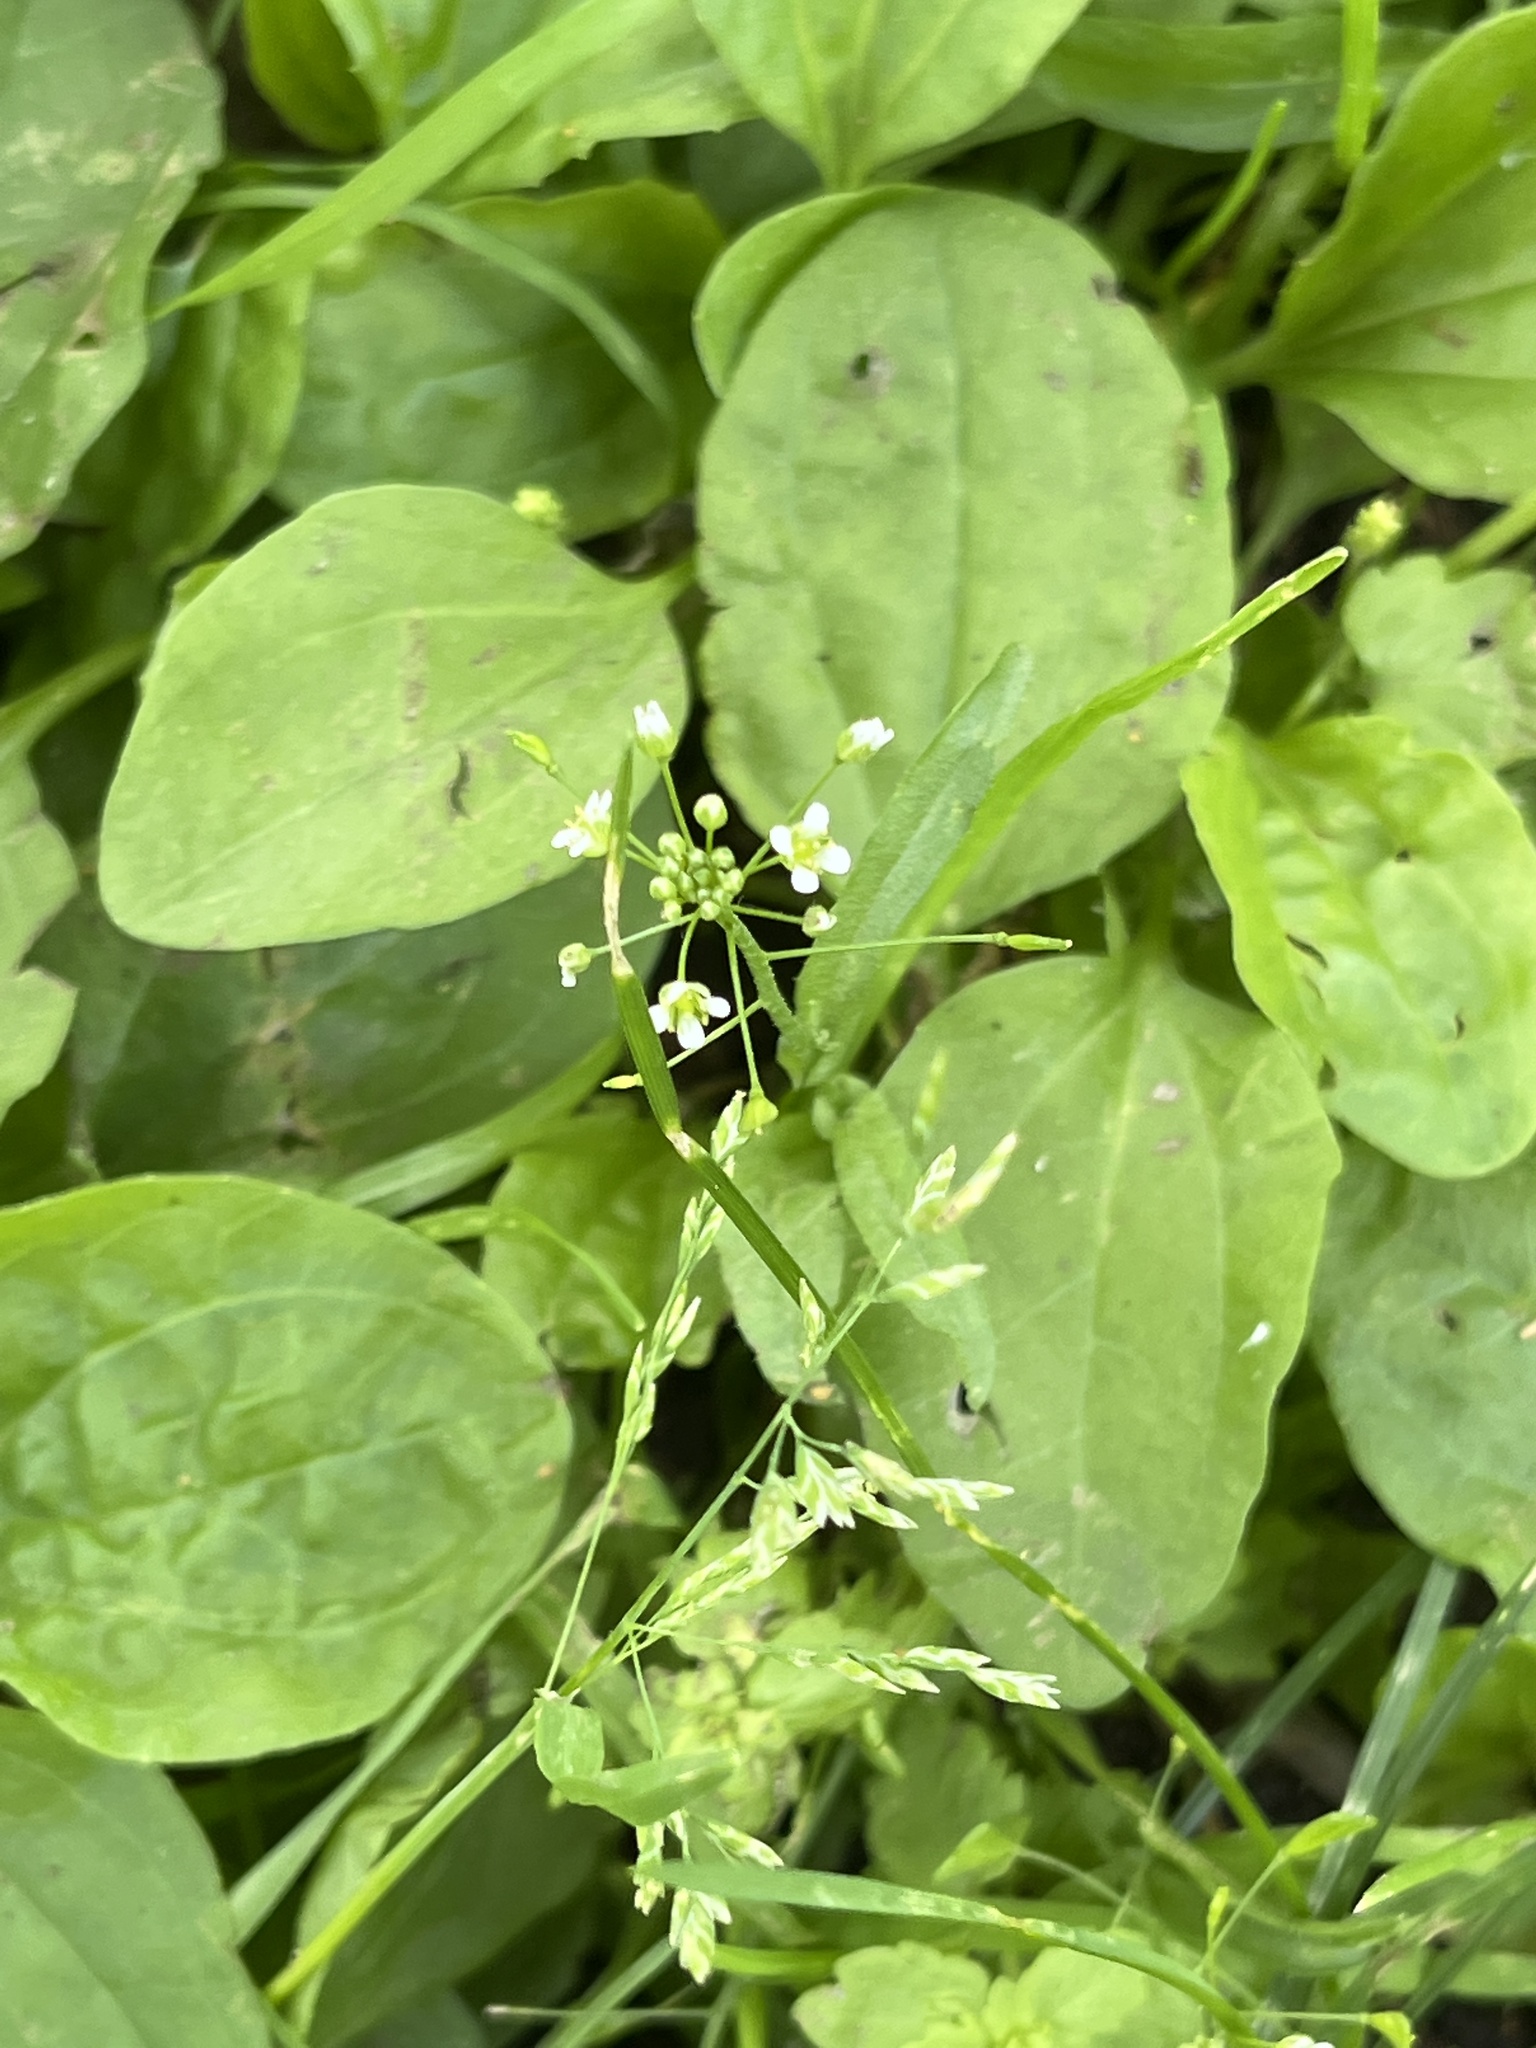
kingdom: Plantae
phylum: Tracheophyta
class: Magnoliopsida
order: Brassicales
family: Brassicaceae
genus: Capsella
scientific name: Capsella bursa-pastoris
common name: Shepherd's purse
